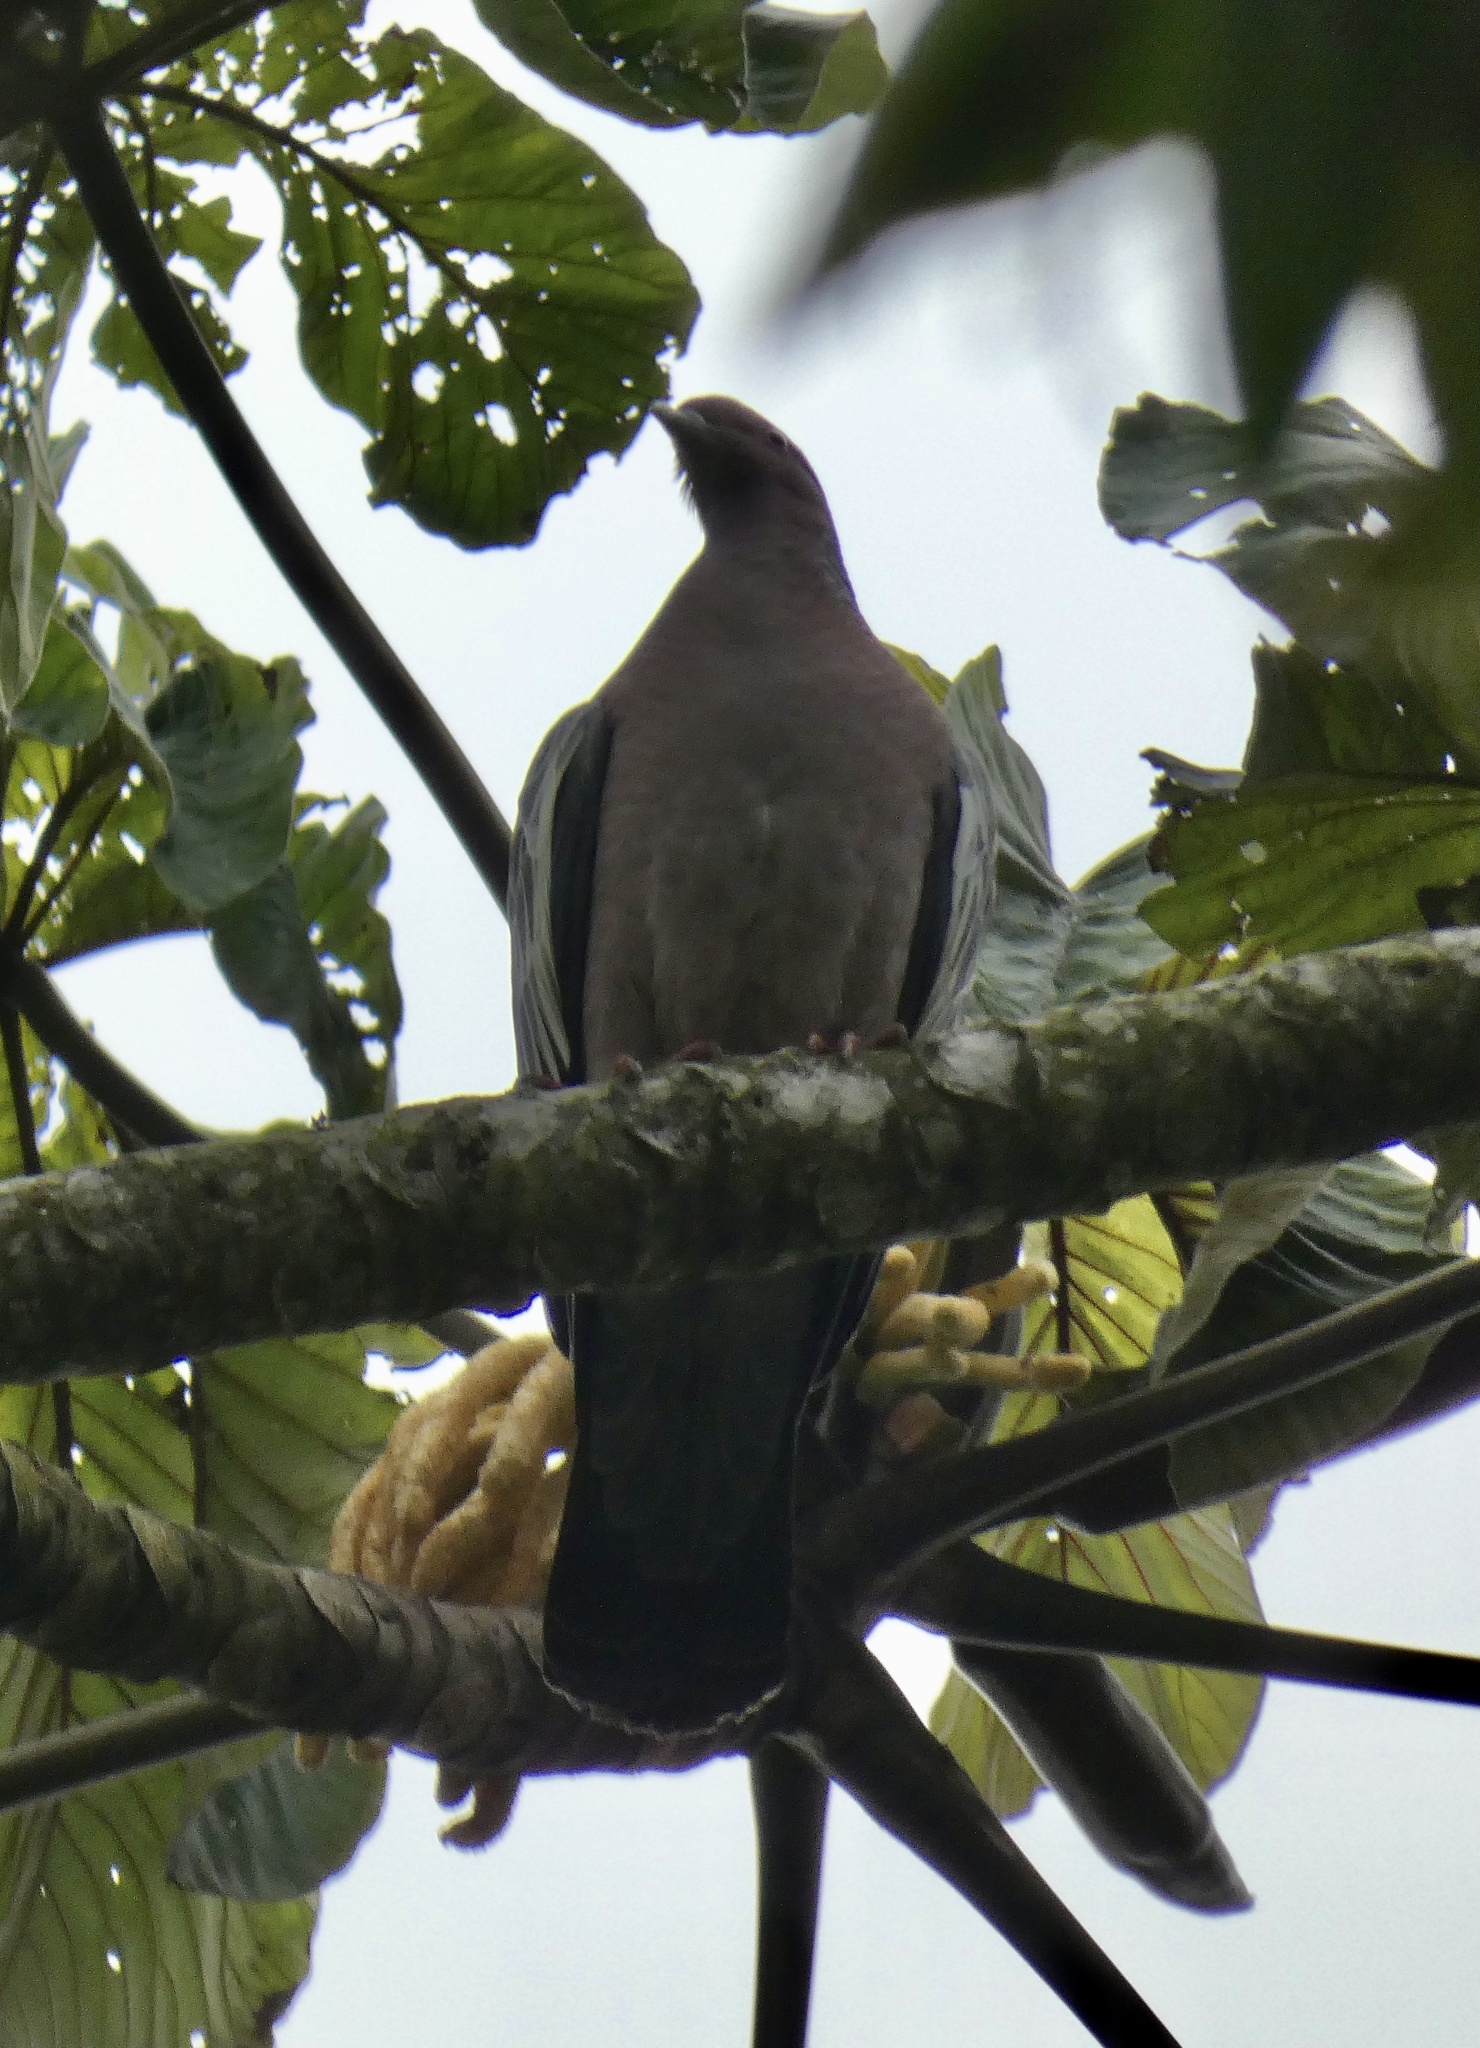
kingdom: Animalia
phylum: Chordata
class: Aves
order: Columbiformes
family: Columbidae
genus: Patagioenas
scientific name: Patagioenas picazuro
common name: Picazuro pigeon
